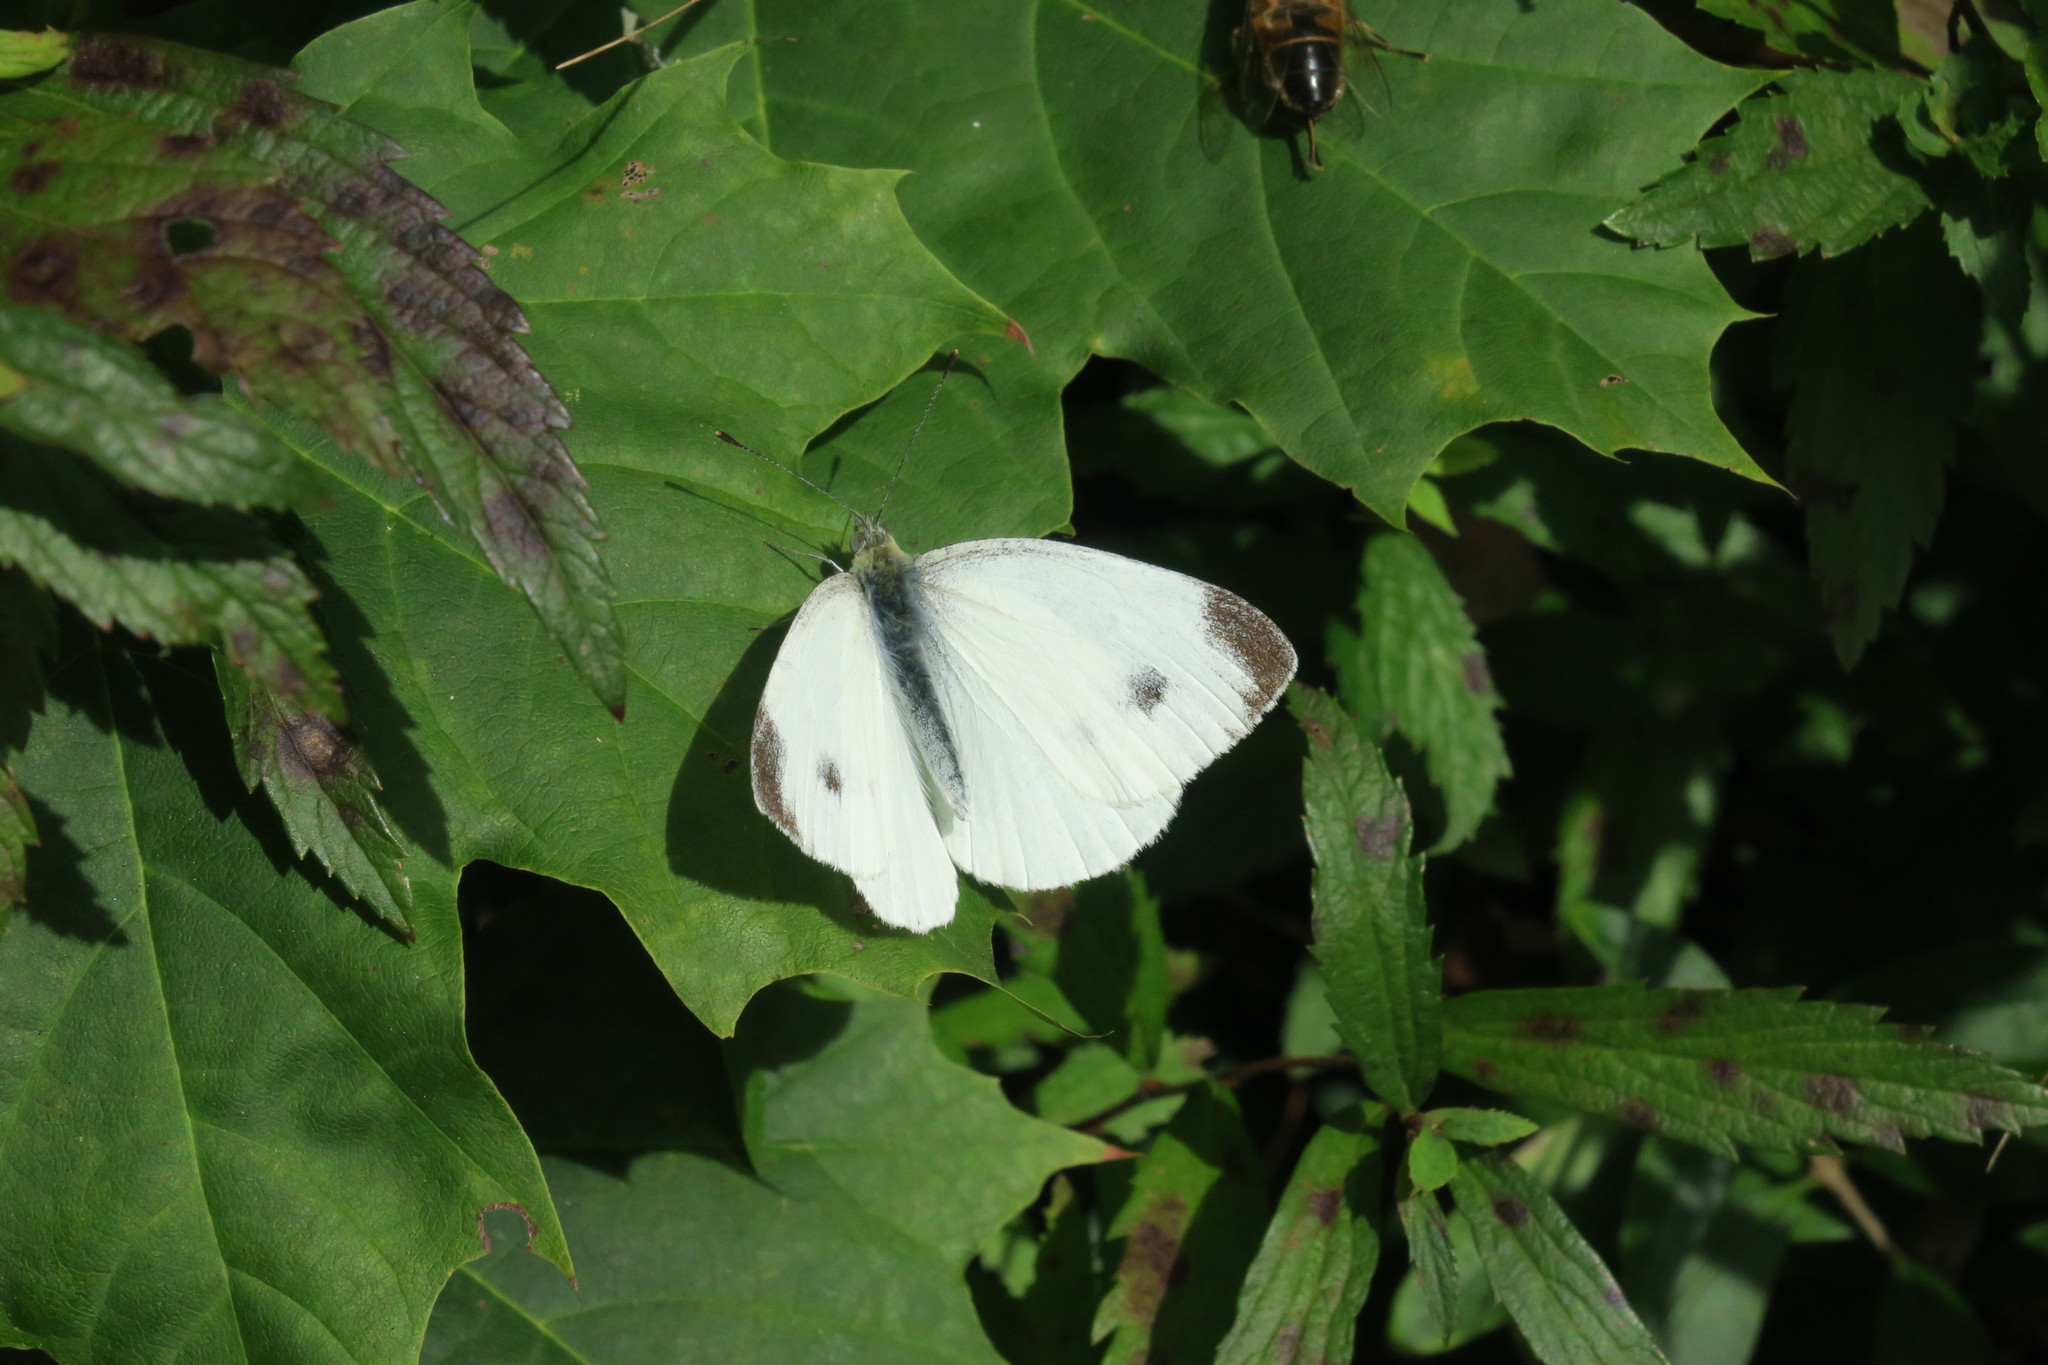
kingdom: Animalia
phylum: Arthropoda
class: Insecta
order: Lepidoptera
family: Pieridae
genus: Pieris
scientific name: Pieris mannii
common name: Southern small white
